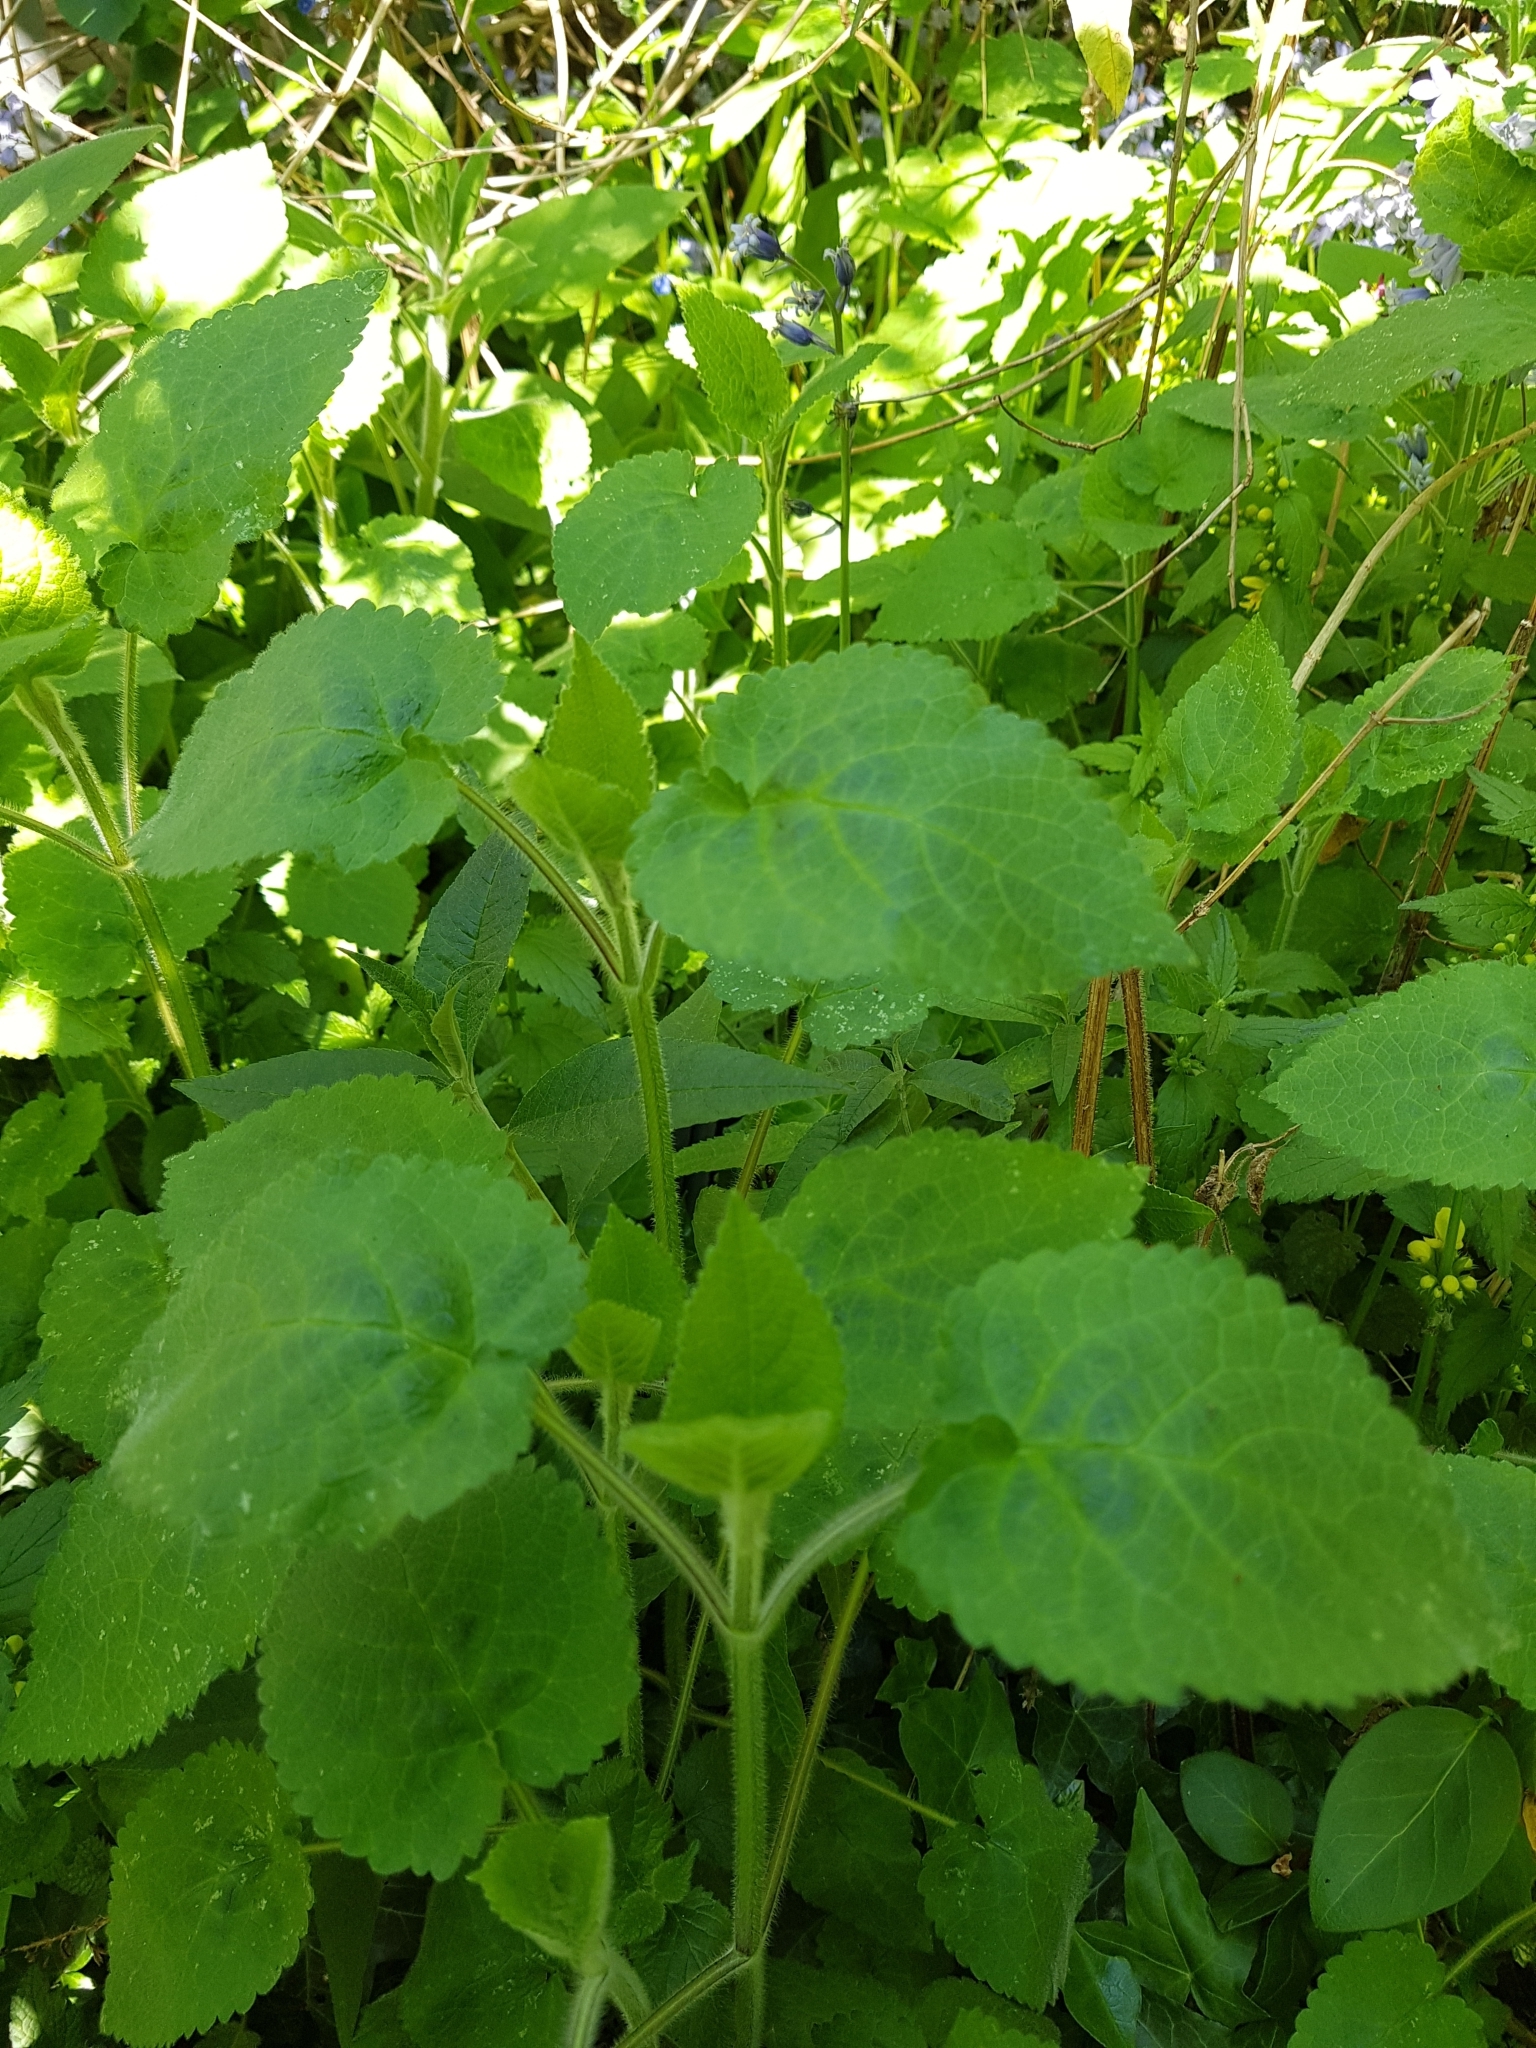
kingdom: Plantae
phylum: Tracheophyta
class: Magnoliopsida
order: Lamiales
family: Lamiaceae
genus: Stachys
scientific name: Stachys sylvatica
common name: Hedge woundwort
